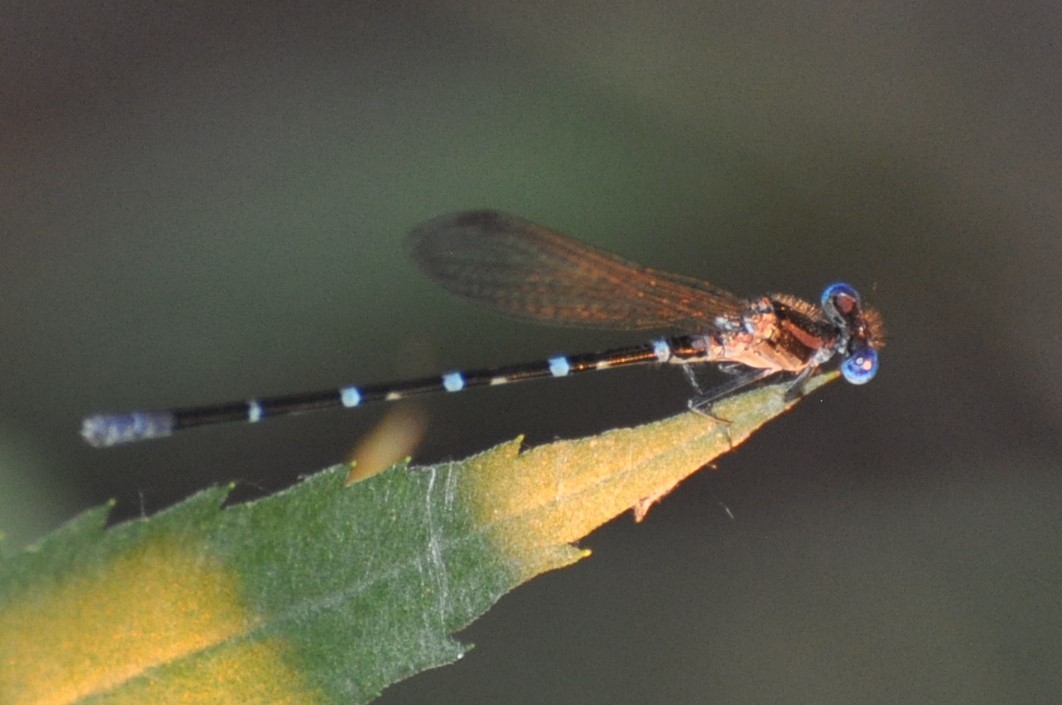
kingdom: Animalia
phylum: Arthropoda
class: Insecta
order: Odonata
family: Coenagrionidae
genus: Argia
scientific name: Argia sedula
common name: Blue-ringed dancer
